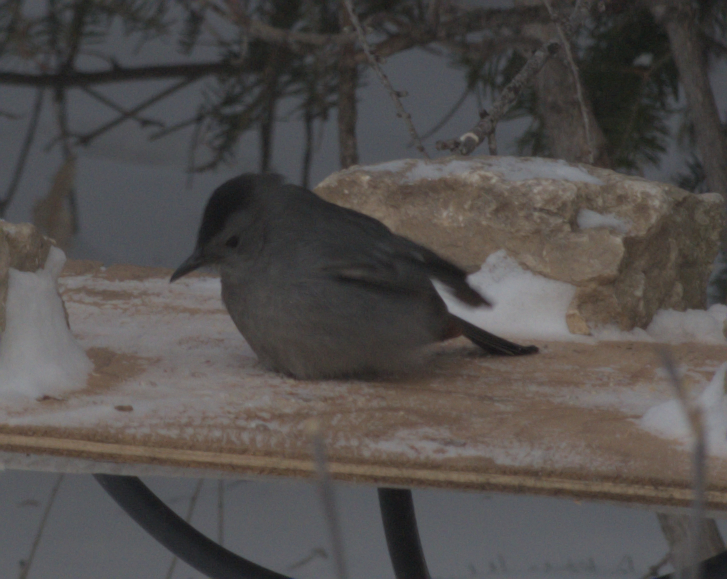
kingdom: Animalia
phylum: Chordata
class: Aves
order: Passeriformes
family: Mimidae
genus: Dumetella
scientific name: Dumetella carolinensis
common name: Gray catbird
